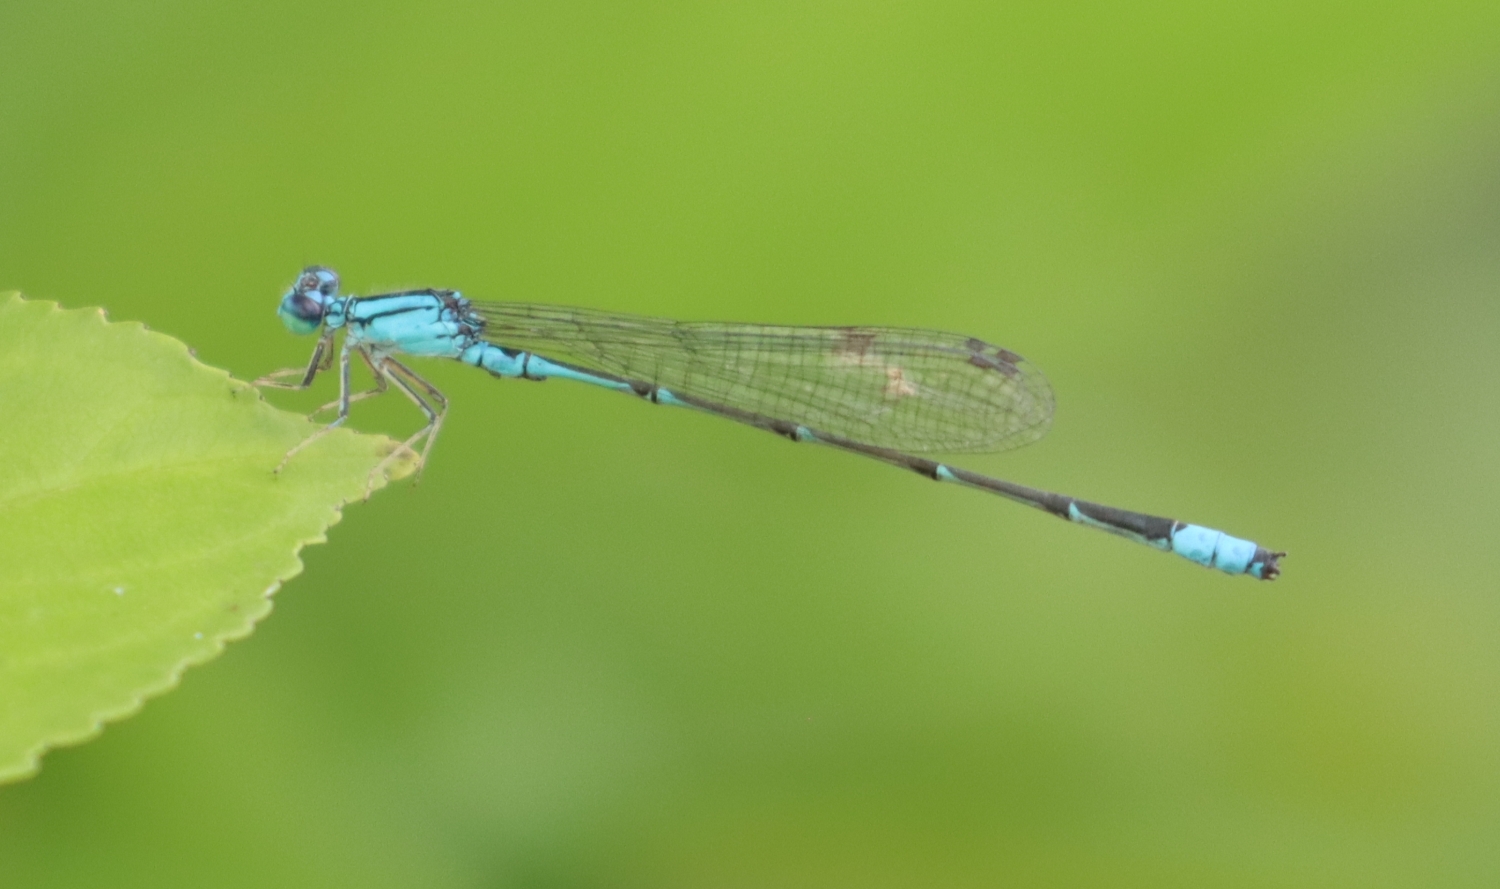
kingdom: Animalia
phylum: Arthropoda
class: Insecta
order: Odonata
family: Coenagrionidae
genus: Enallagma
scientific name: Enallagma traviatum
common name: Slender bluet
